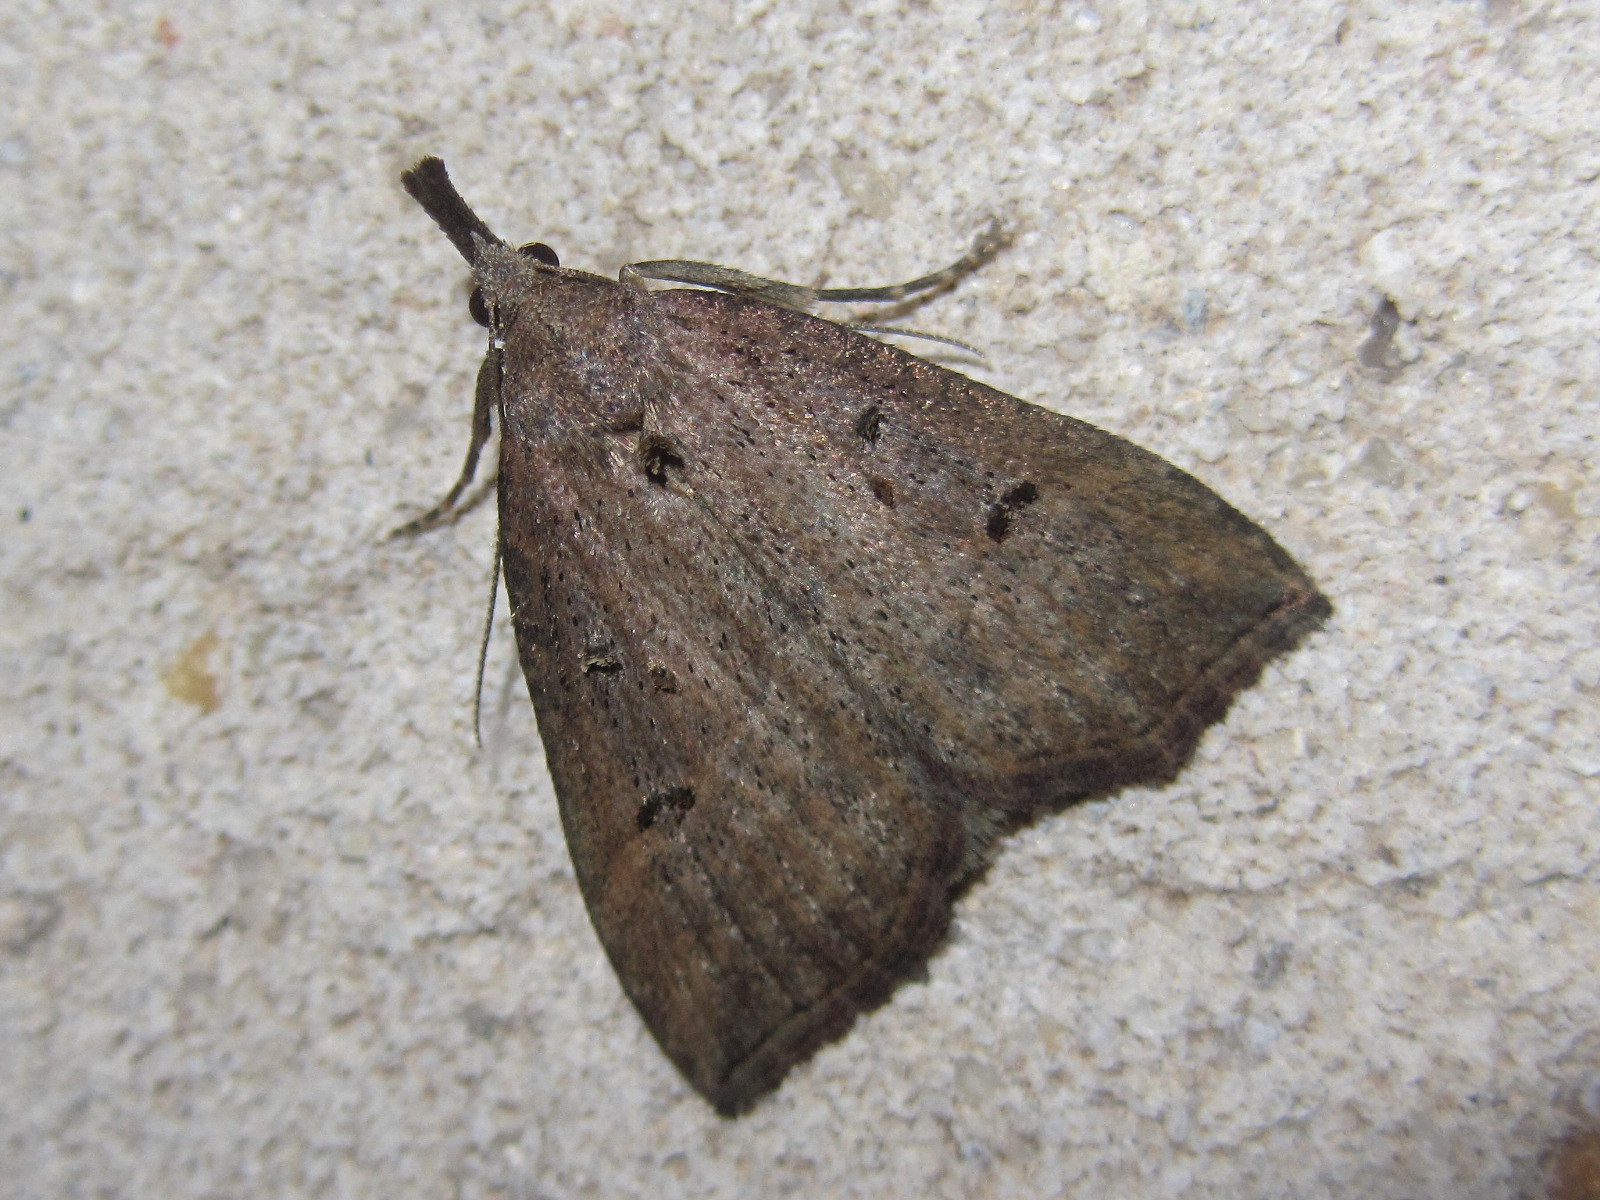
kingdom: Animalia
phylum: Arthropoda
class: Insecta
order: Lepidoptera
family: Erebidae
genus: Hypena
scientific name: Hypena rostralis
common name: Buttoned snout
